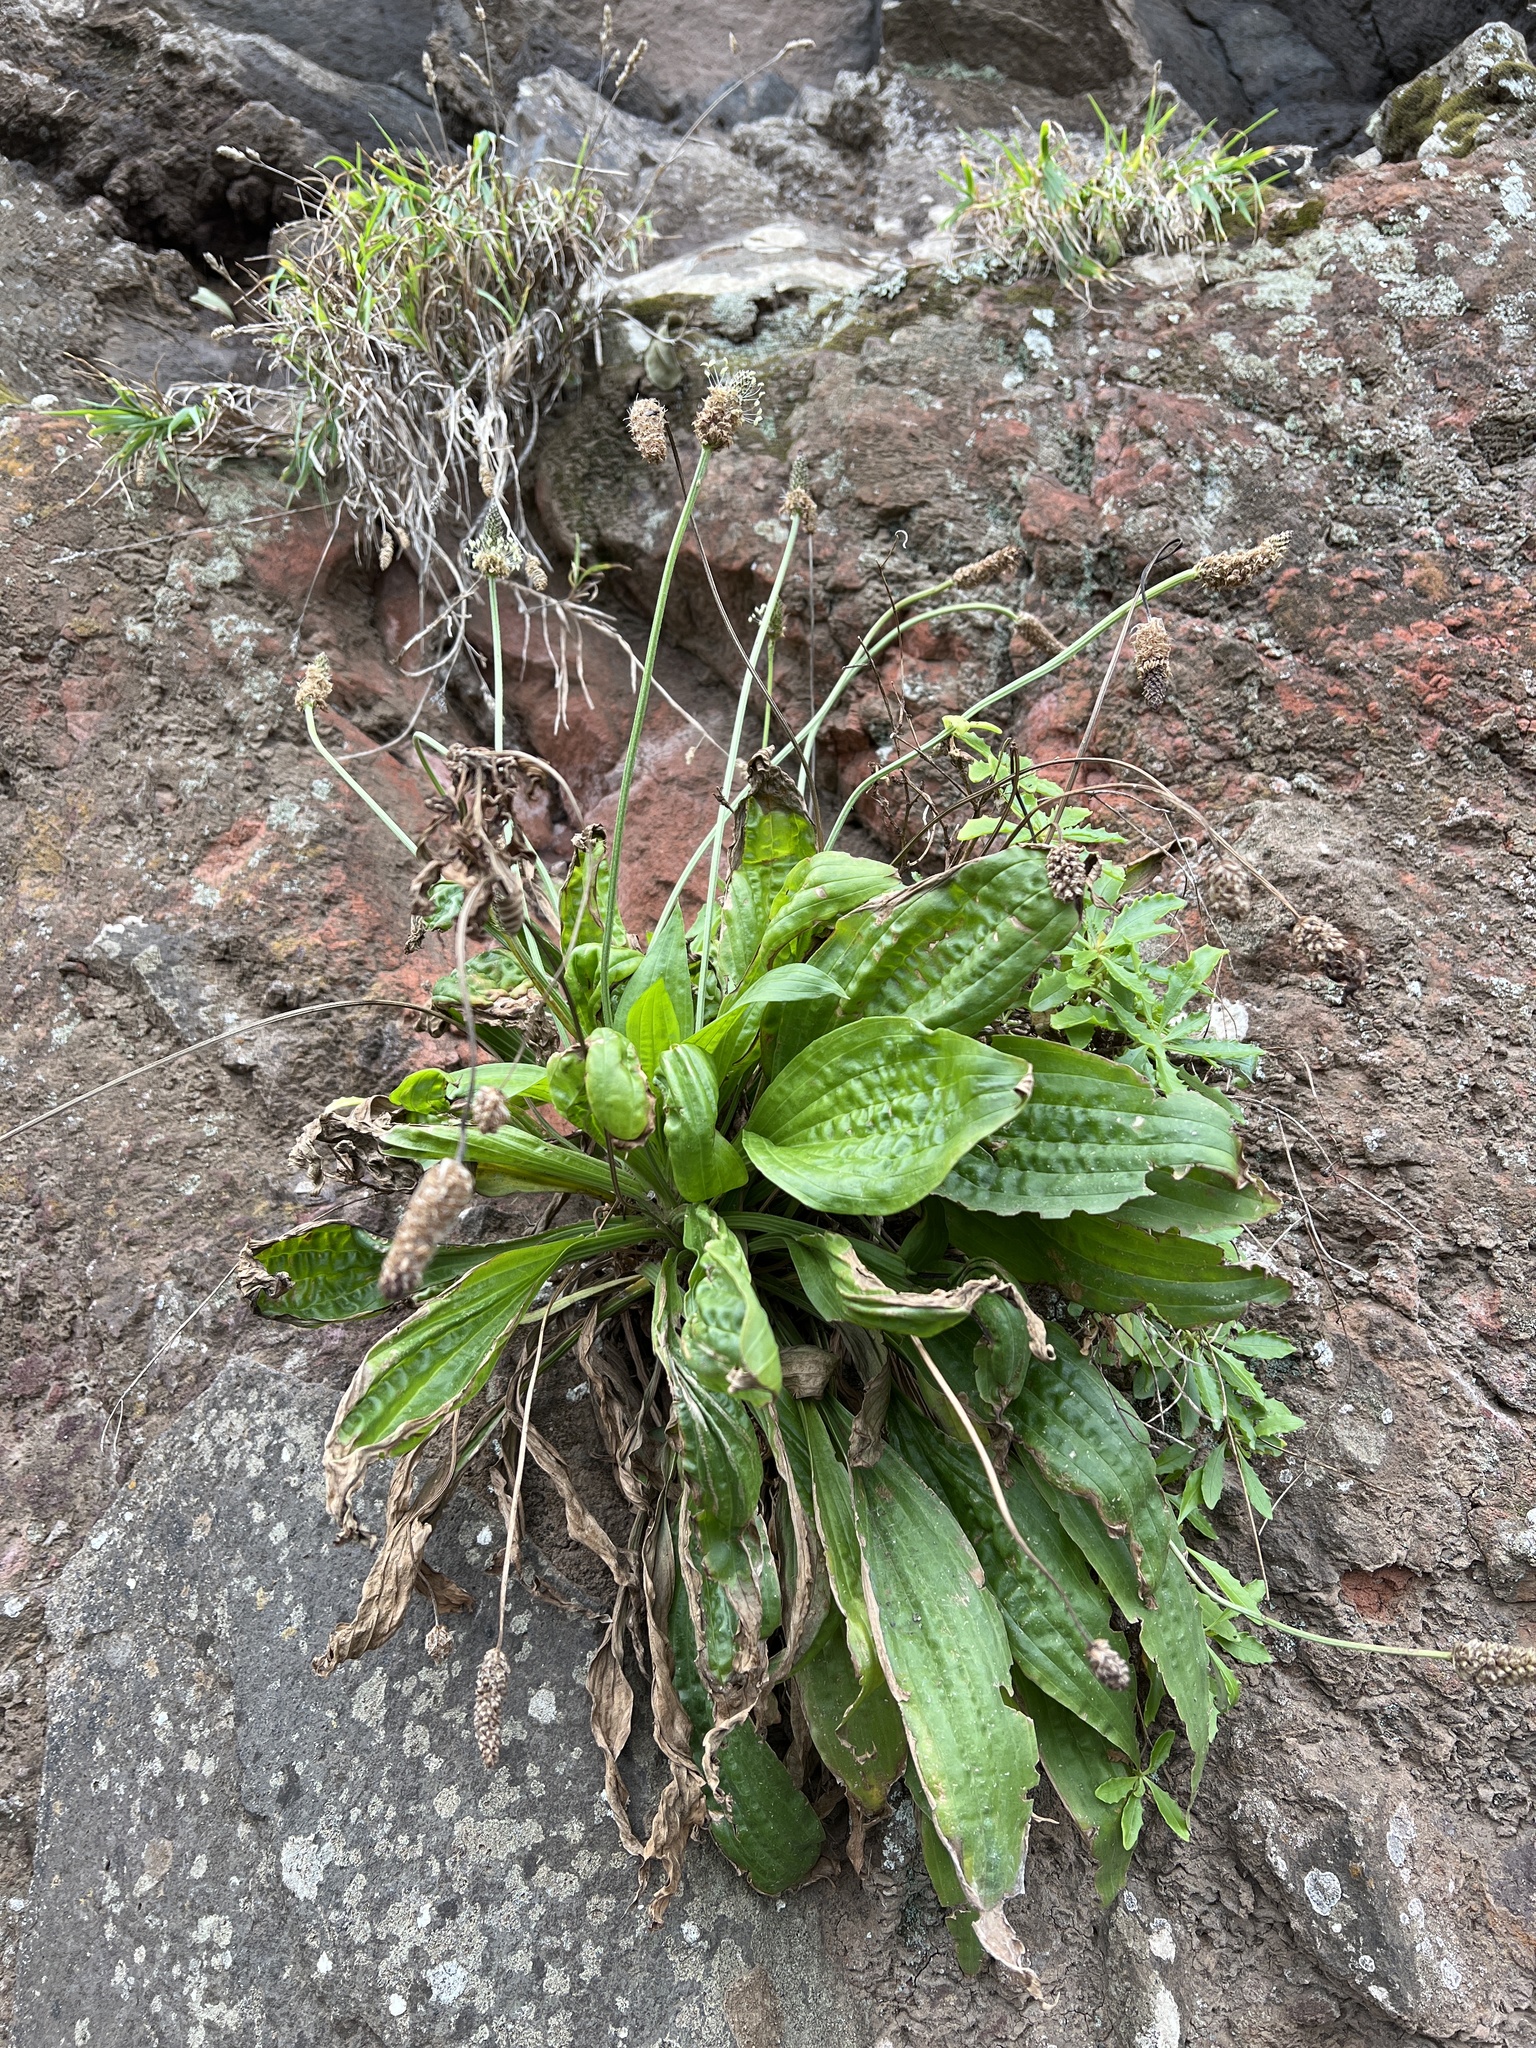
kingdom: Plantae
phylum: Tracheophyta
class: Magnoliopsida
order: Lamiales
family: Plantaginaceae
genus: Plantago
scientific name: Plantago lanceolata
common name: Ribwort plantain
